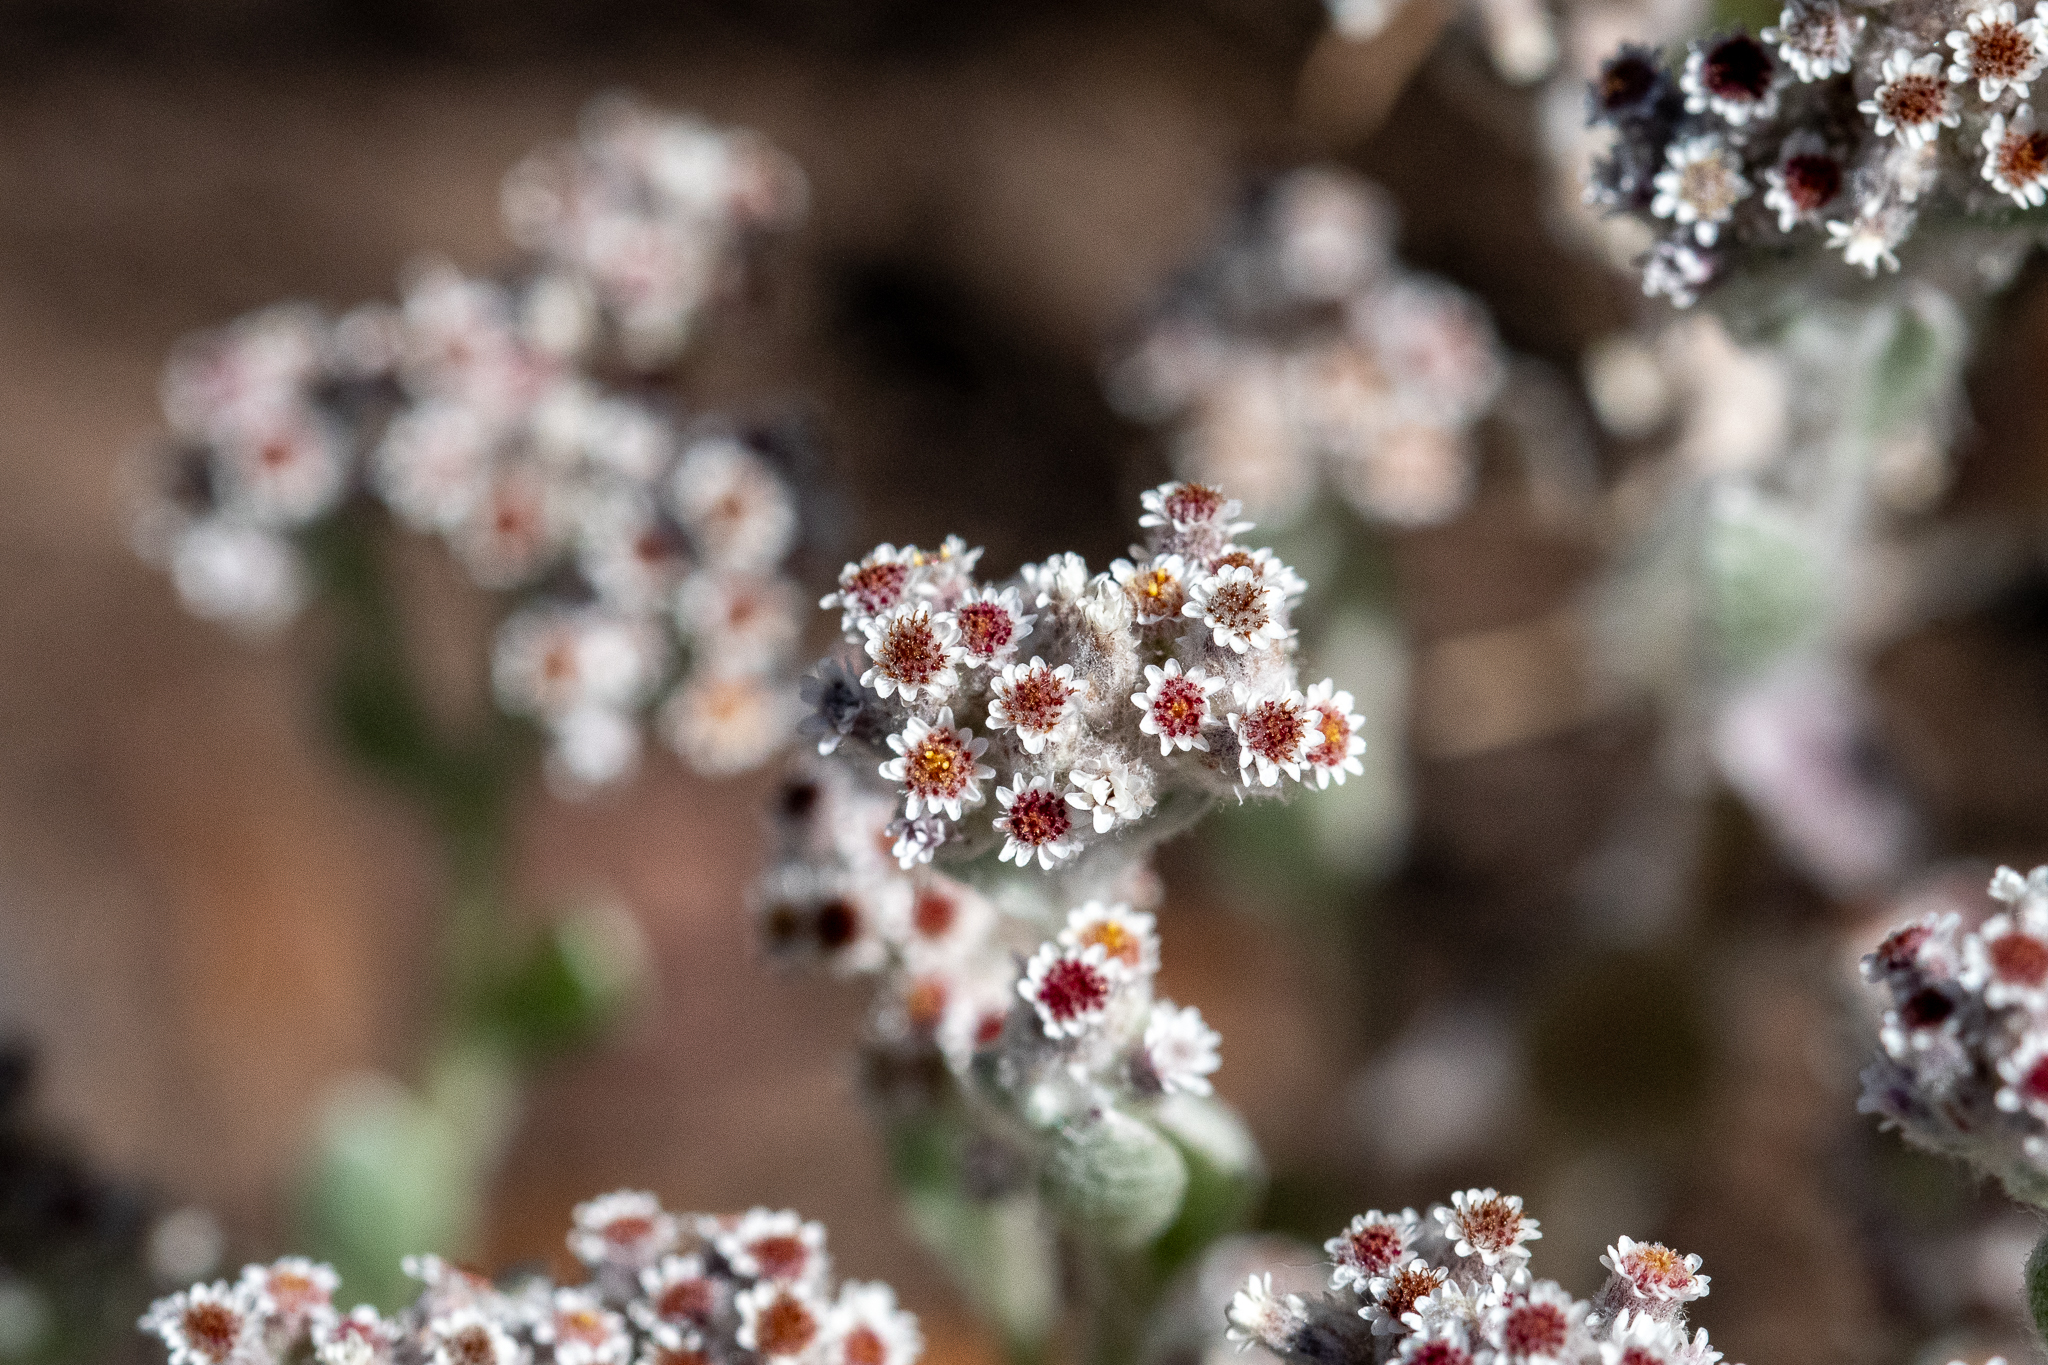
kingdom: Plantae
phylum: Tracheophyta
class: Magnoliopsida
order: Asterales
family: Asteraceae
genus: Vellereophyton
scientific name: Vellereophyton dealbatum
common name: White-cudweed
